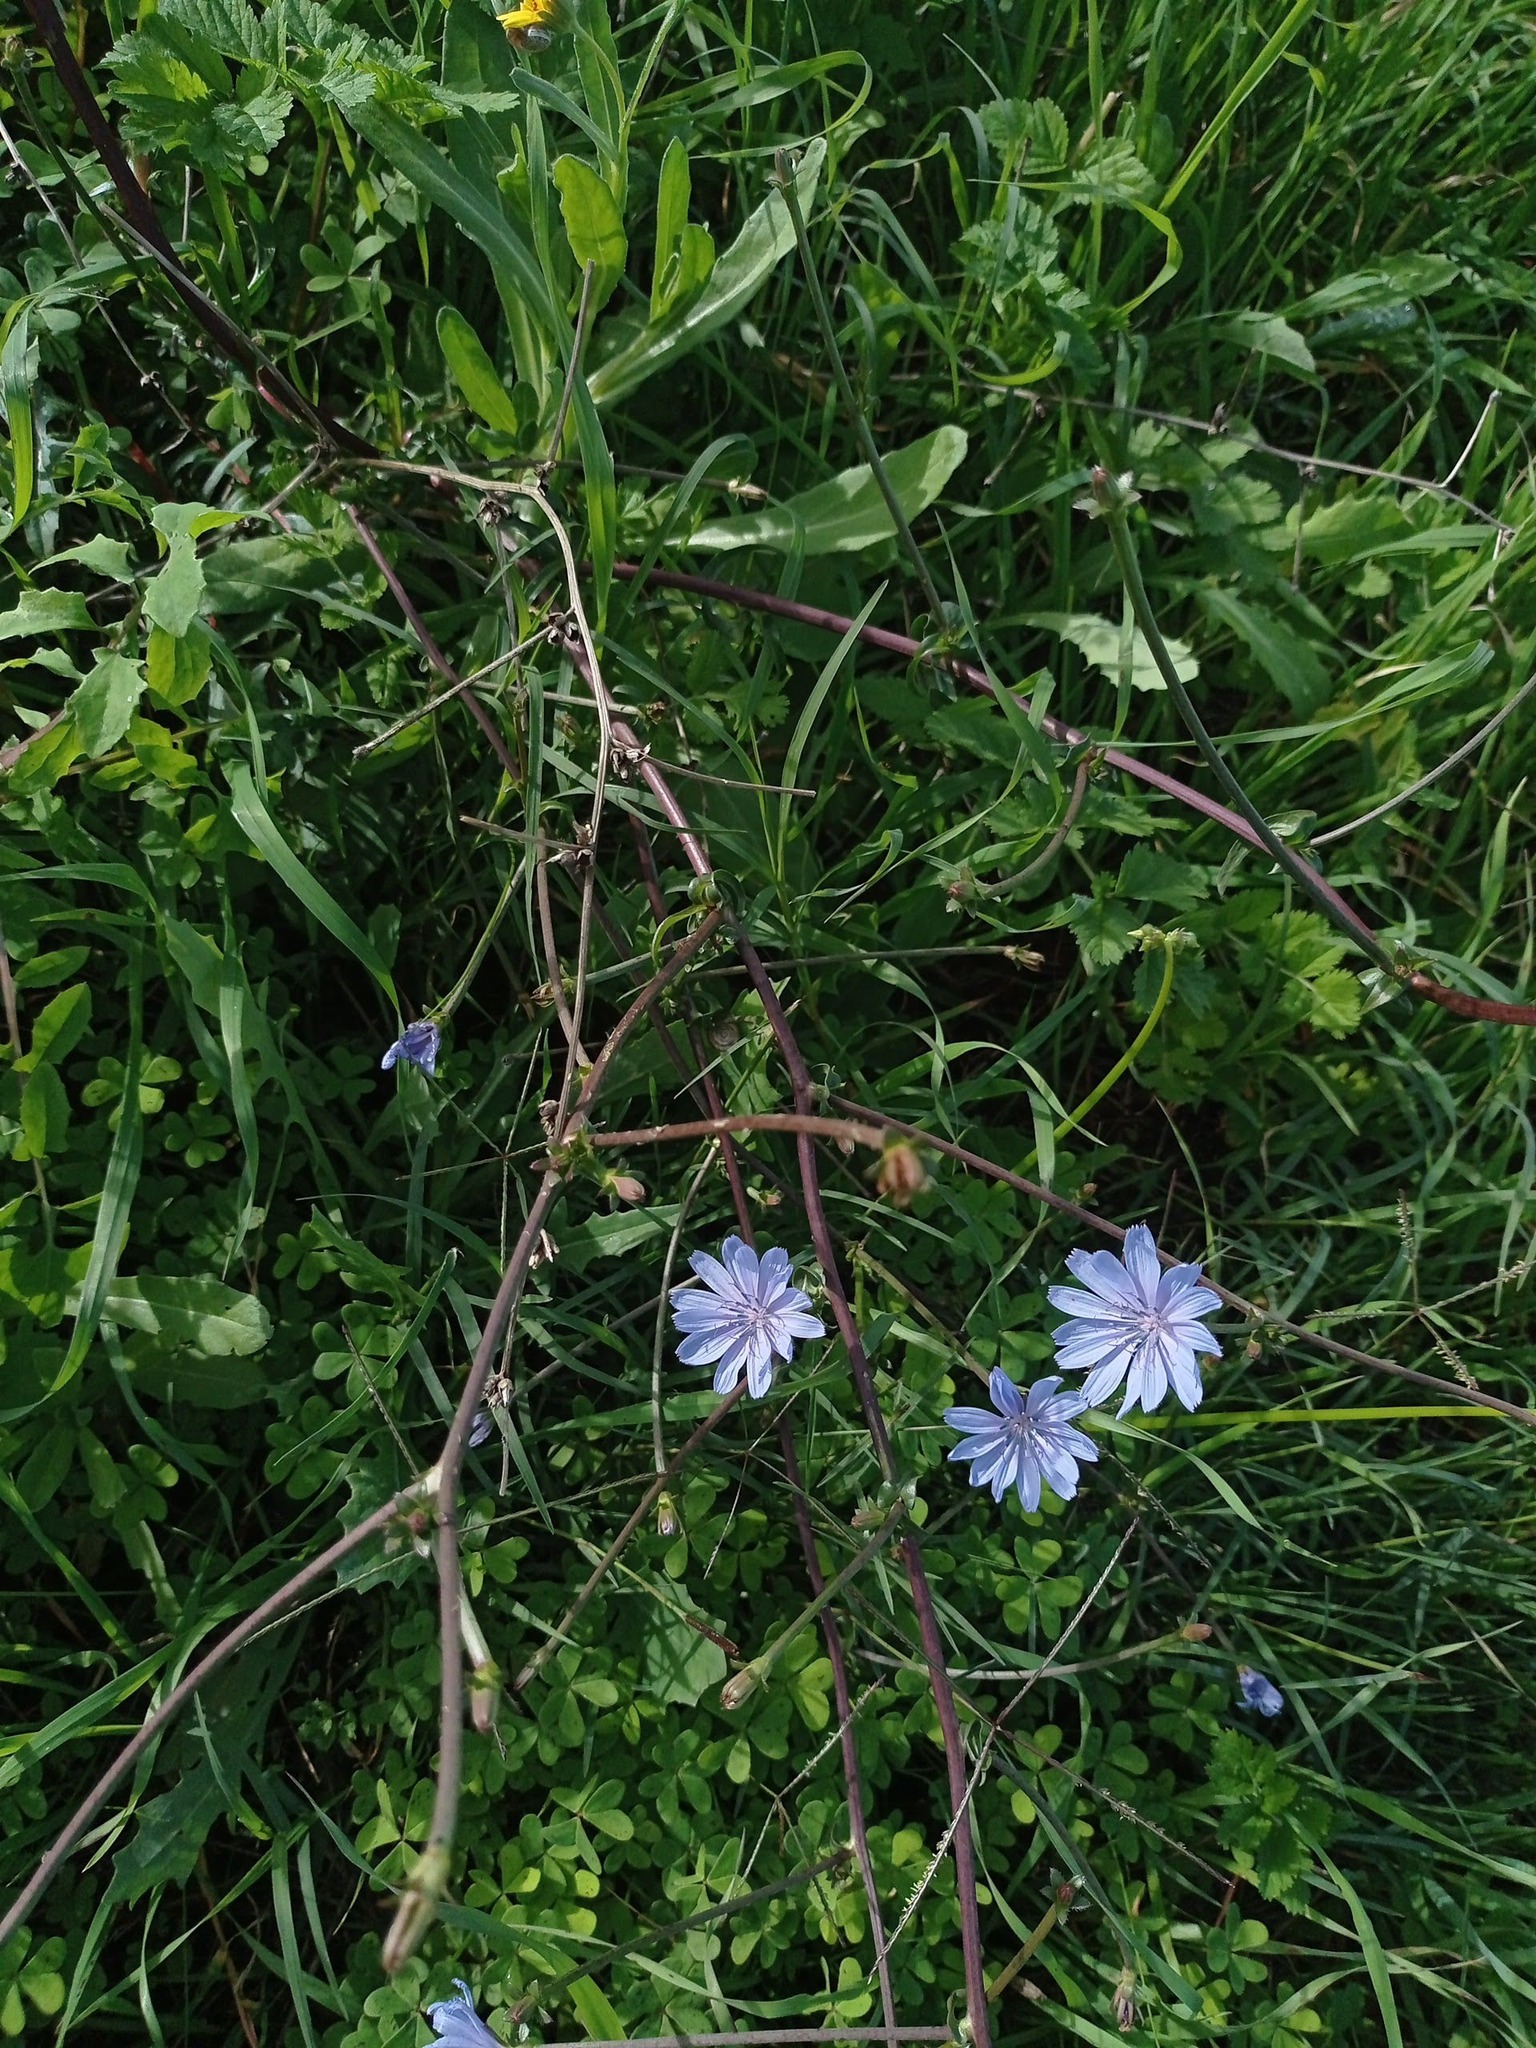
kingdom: Plantae
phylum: Tracheophyta
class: Magnoliopsida
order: Asterales
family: Asteraceae
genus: Cichorium
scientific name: Cichorium intybus
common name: Chicory
